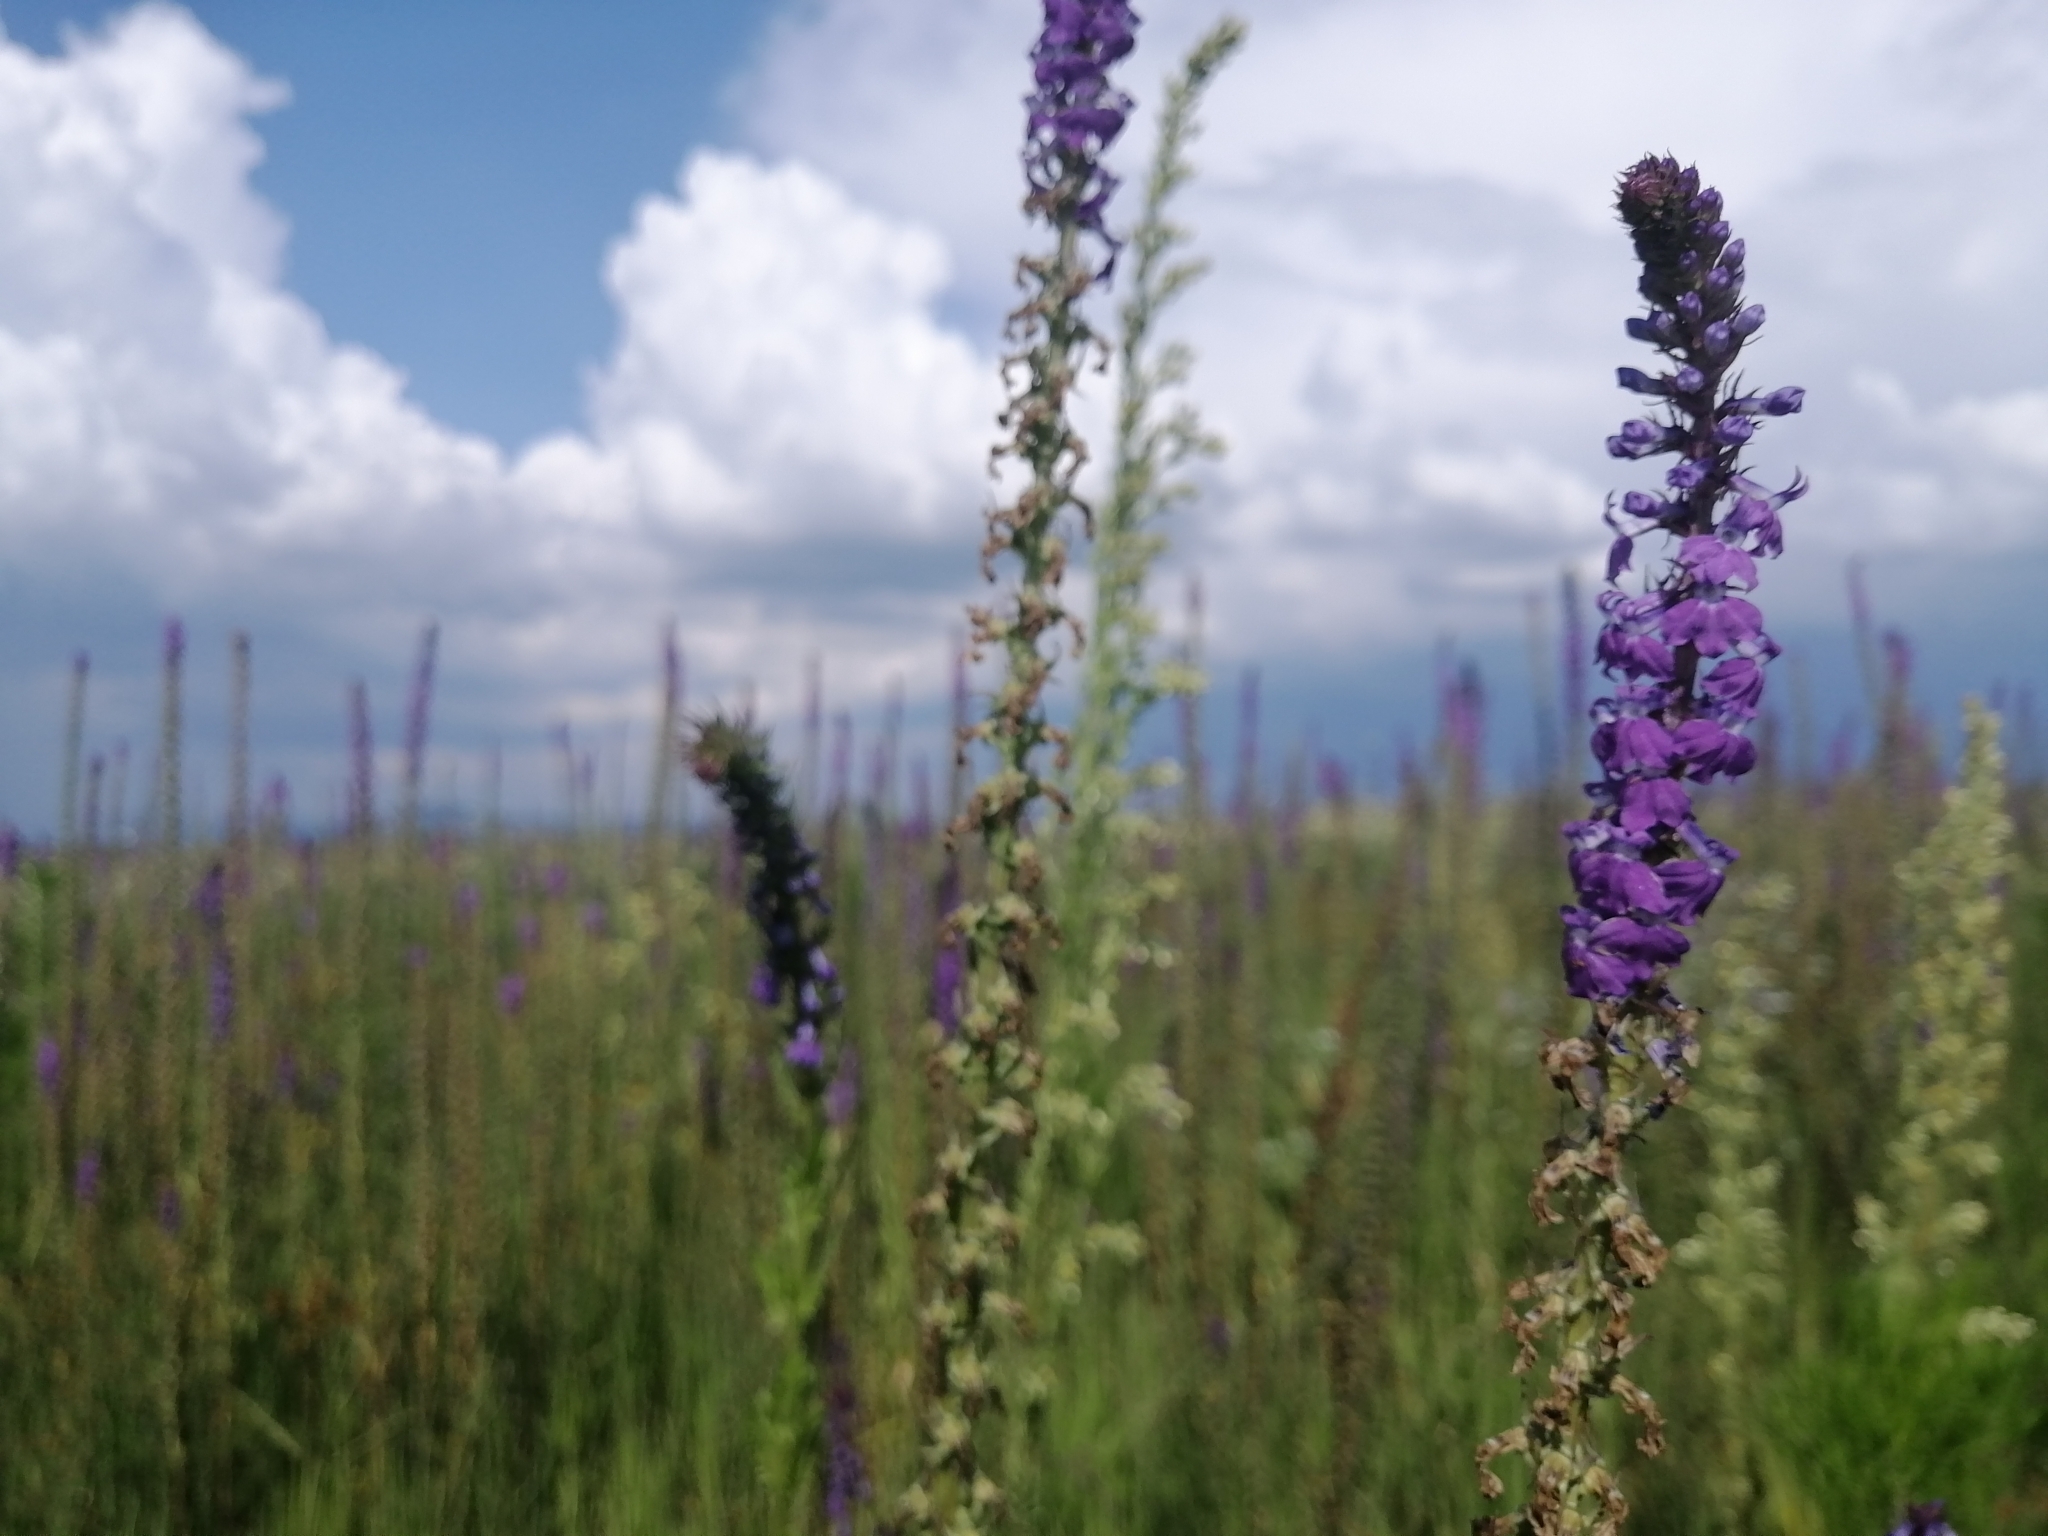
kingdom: Plantae
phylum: Tracheophyta
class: Magnoliopsida
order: Asterales
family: Campanulaceae
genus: Lobelia
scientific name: Lobelia fenestralis
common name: Leafy lobelia
